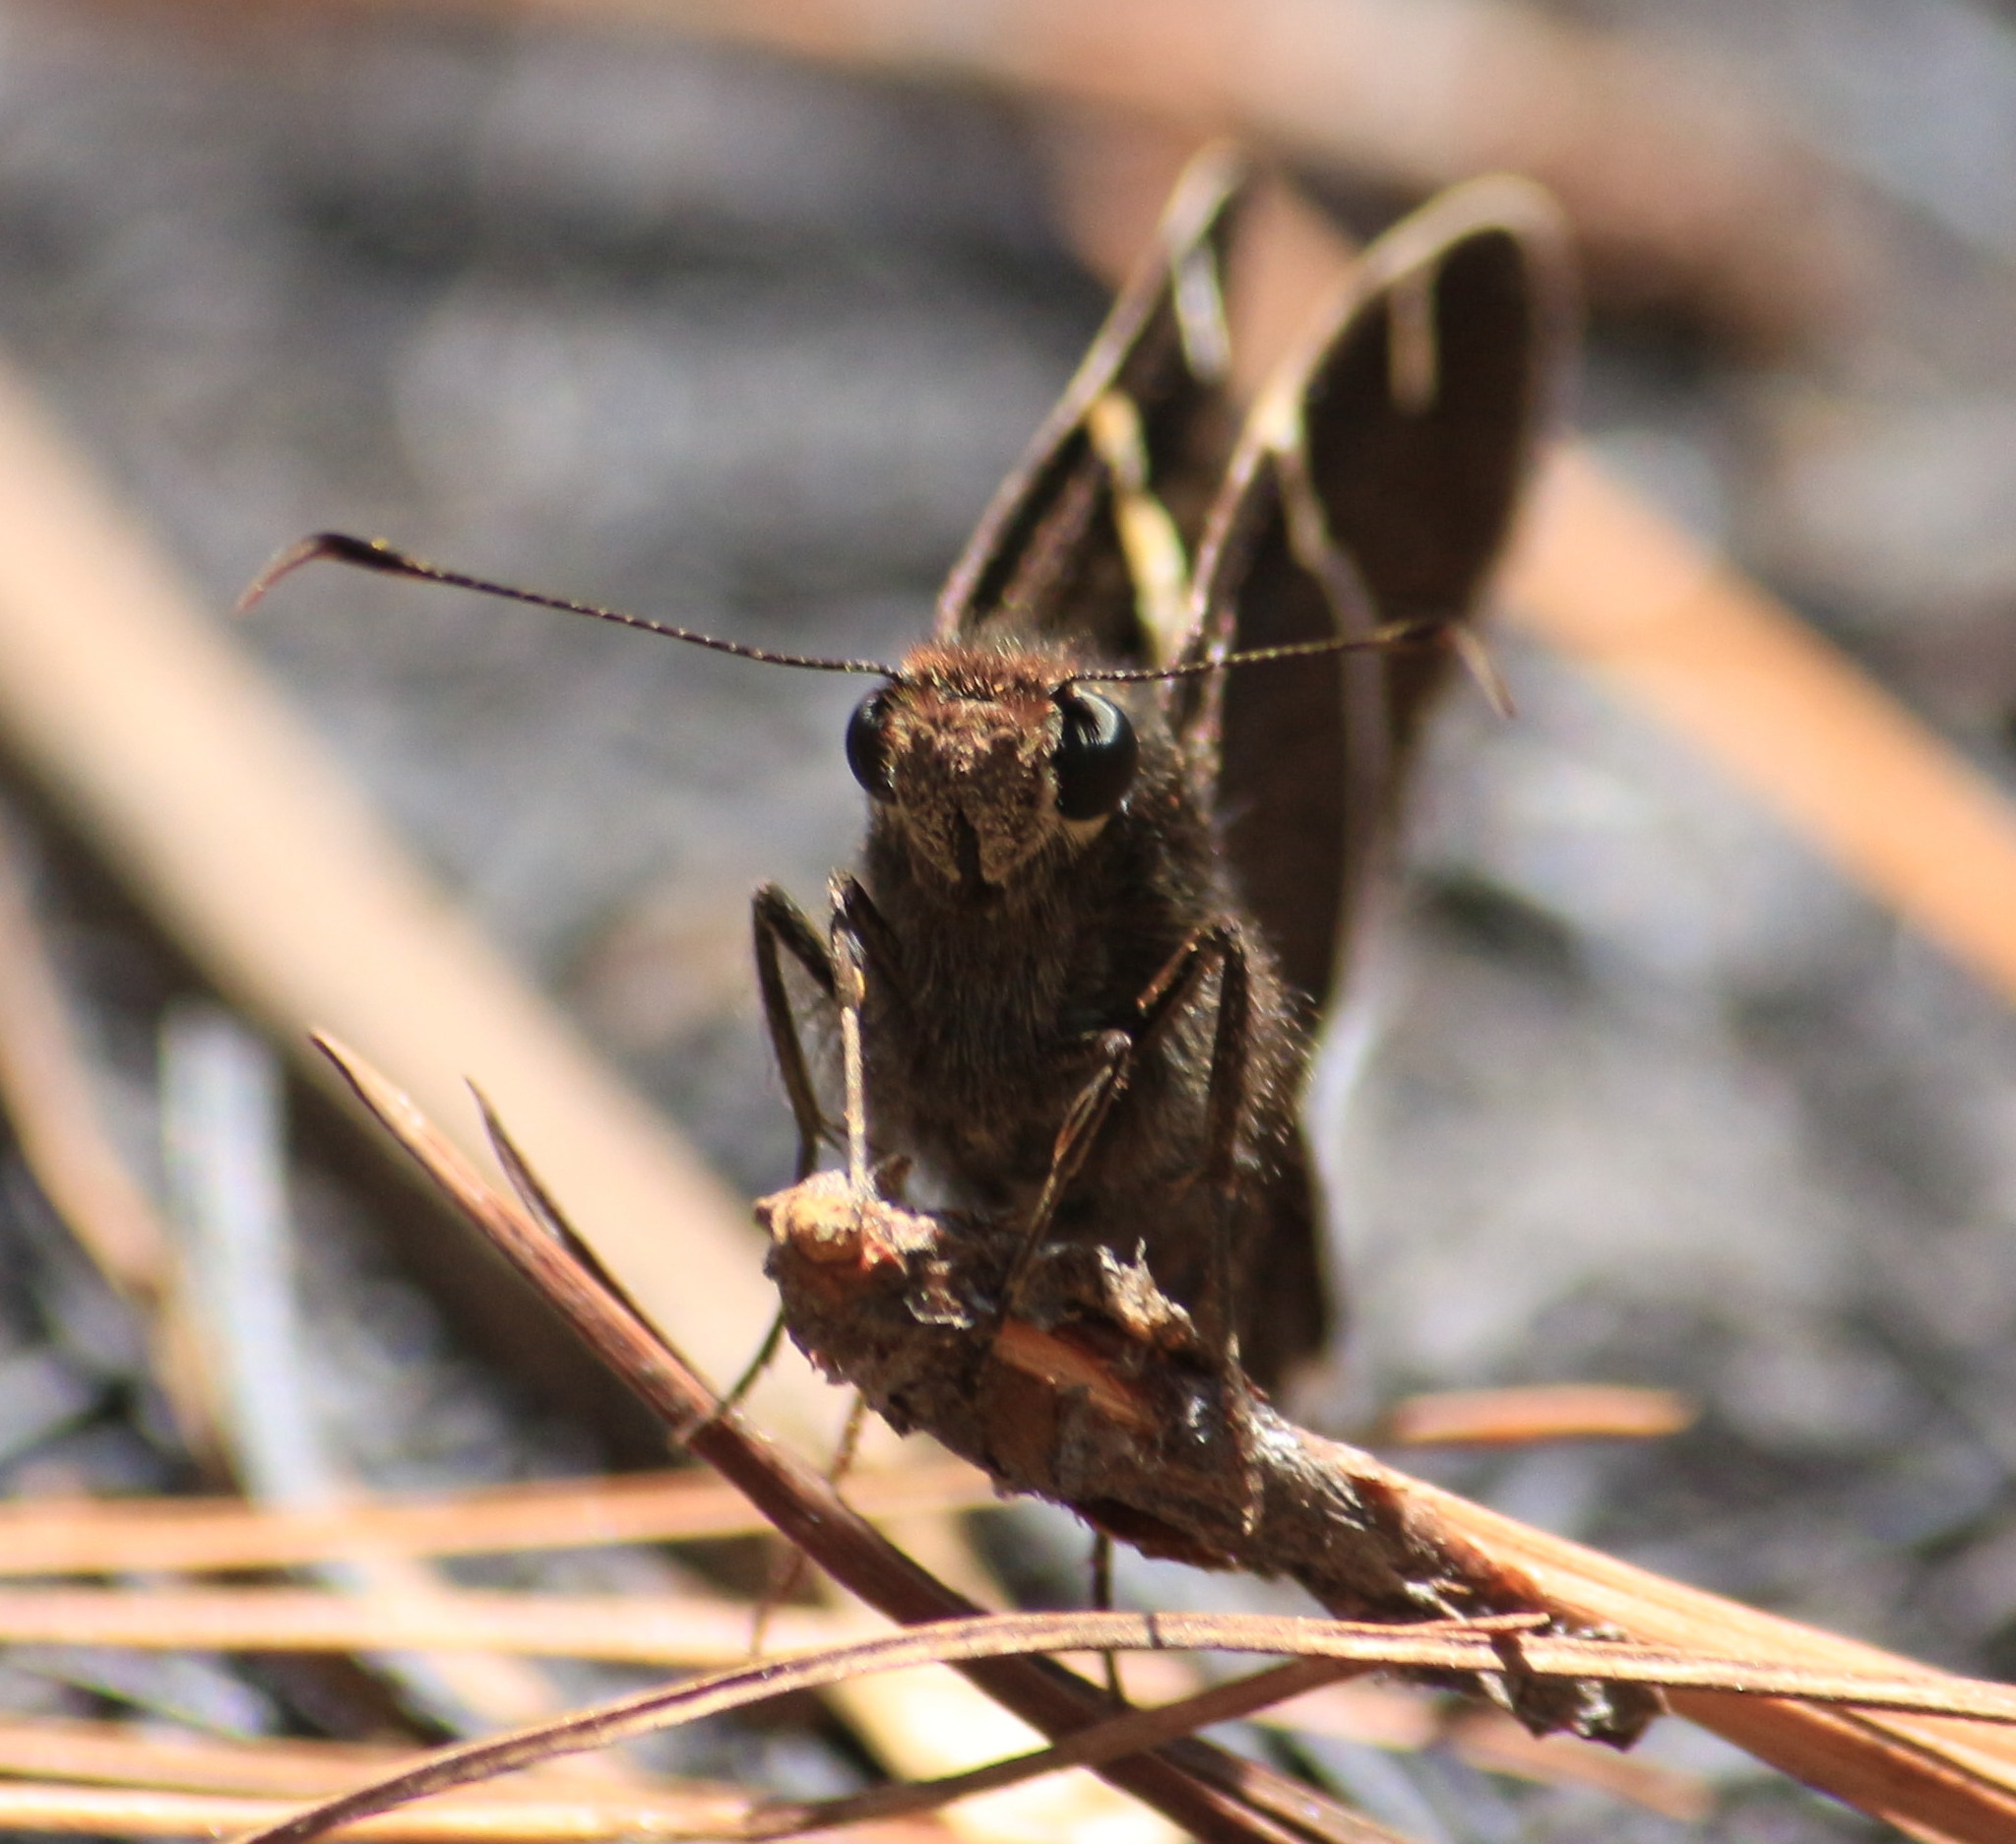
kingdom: Animalia
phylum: Arthropoda
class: Insecta
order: Lepidoptera
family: Hesperiidae
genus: Thorybes
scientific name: Thorybes cincta
